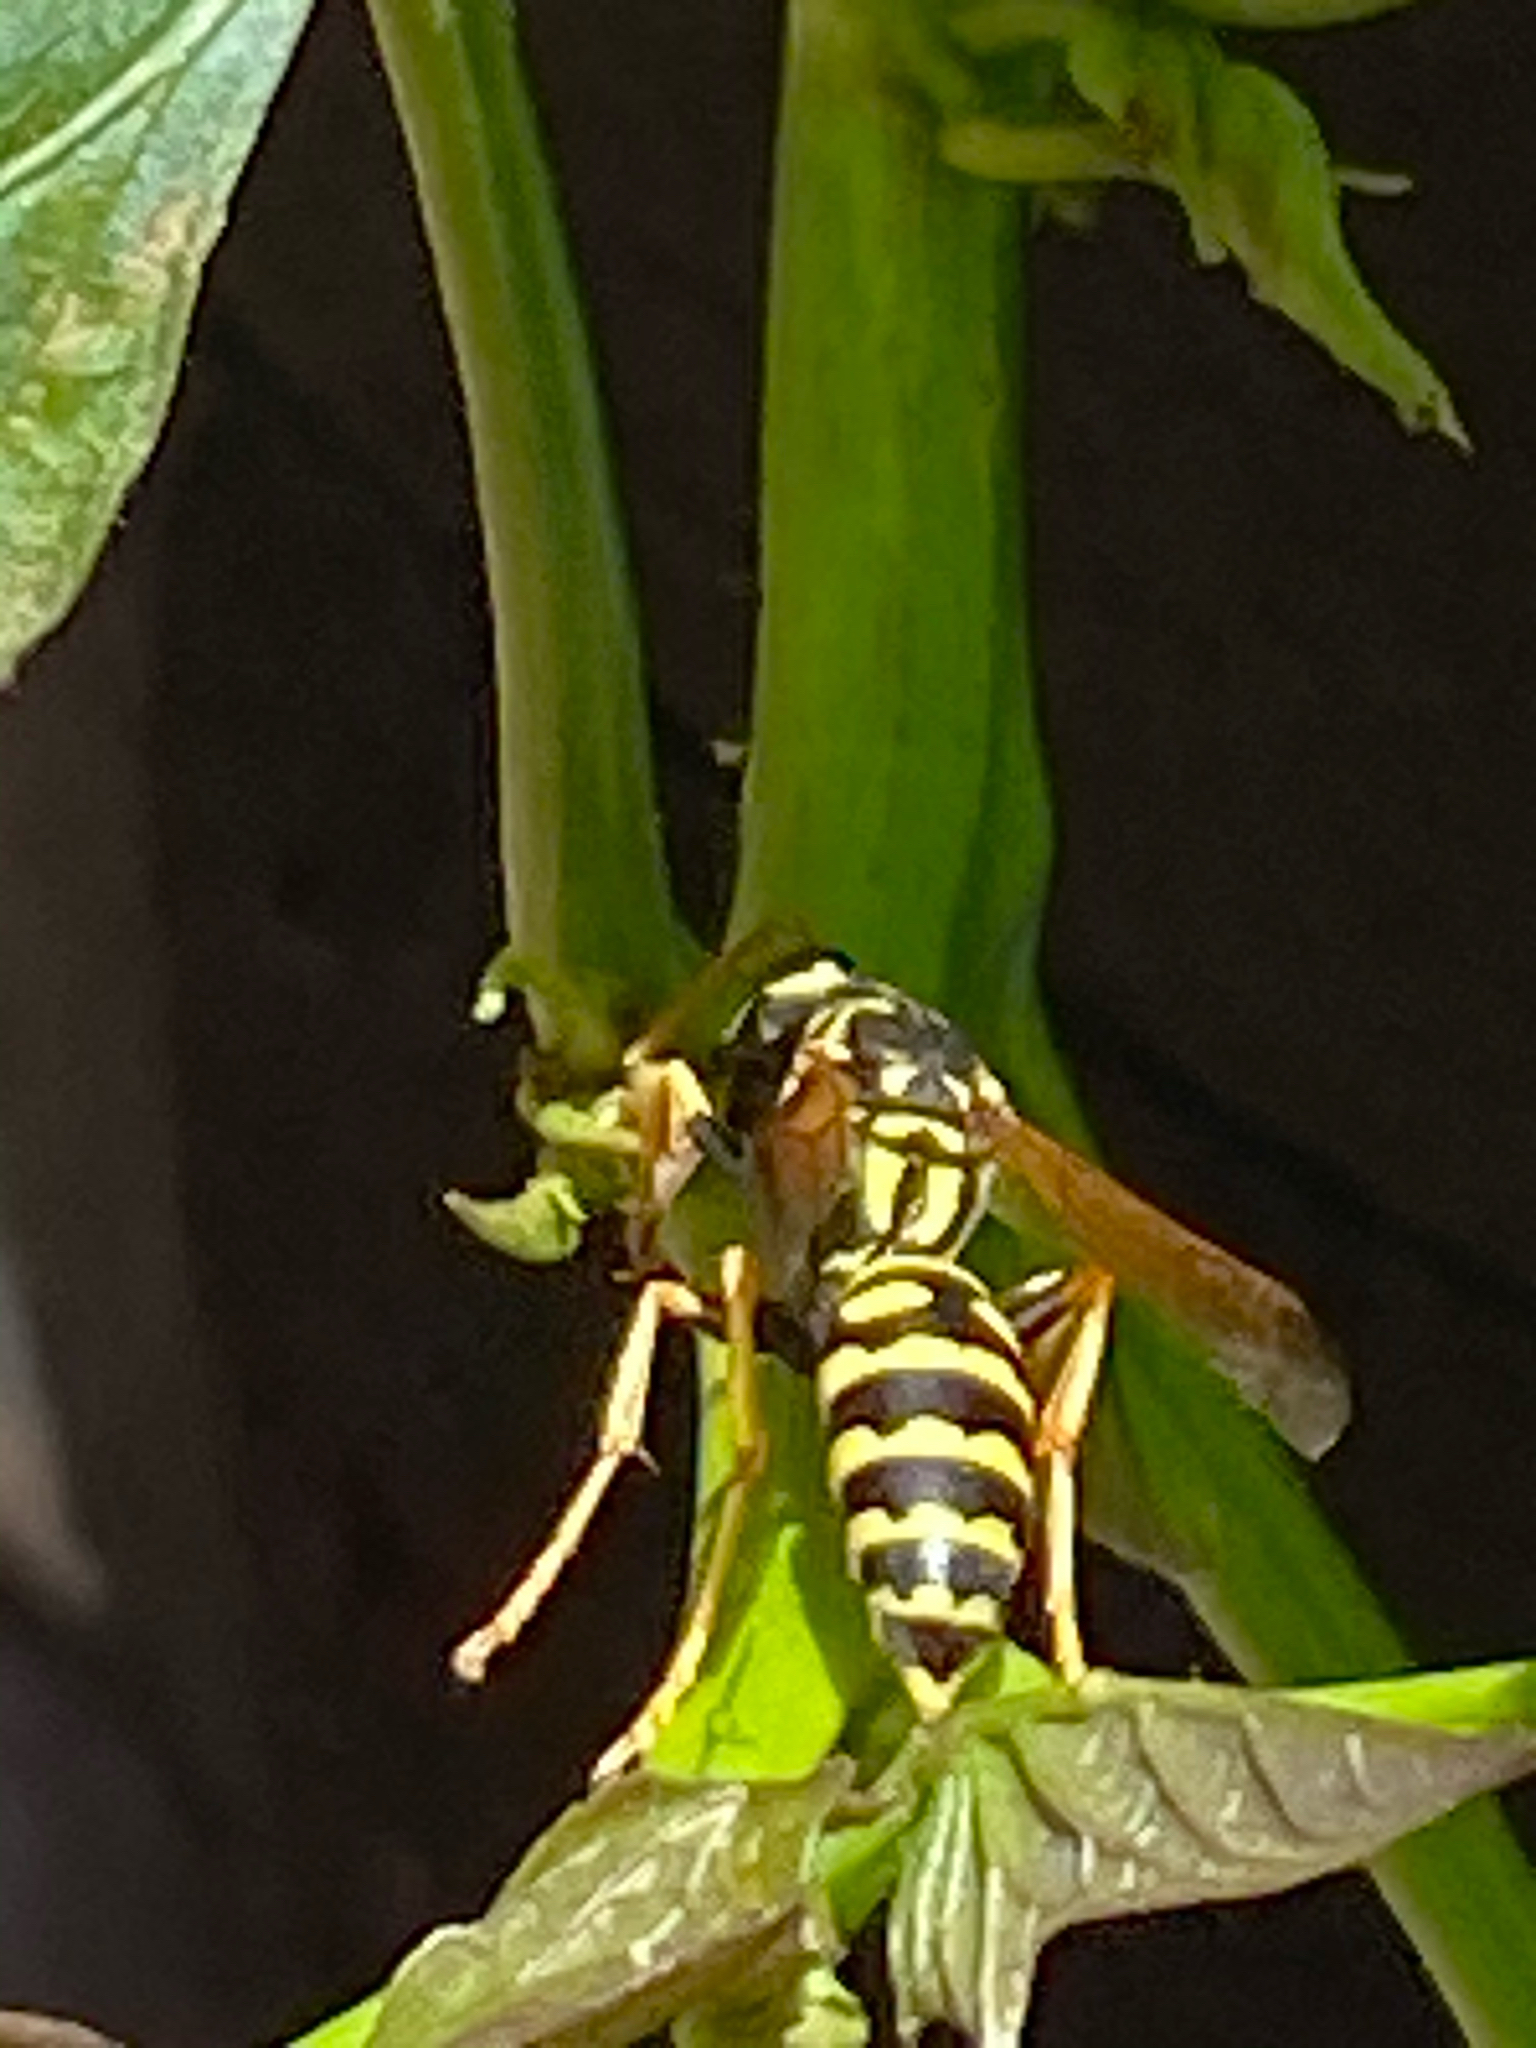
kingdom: Animalia
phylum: Arthropoda
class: Insecta
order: Hymenoptera
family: Eumenidae
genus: Polistes
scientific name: Polistes dominula
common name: Paper wasp
